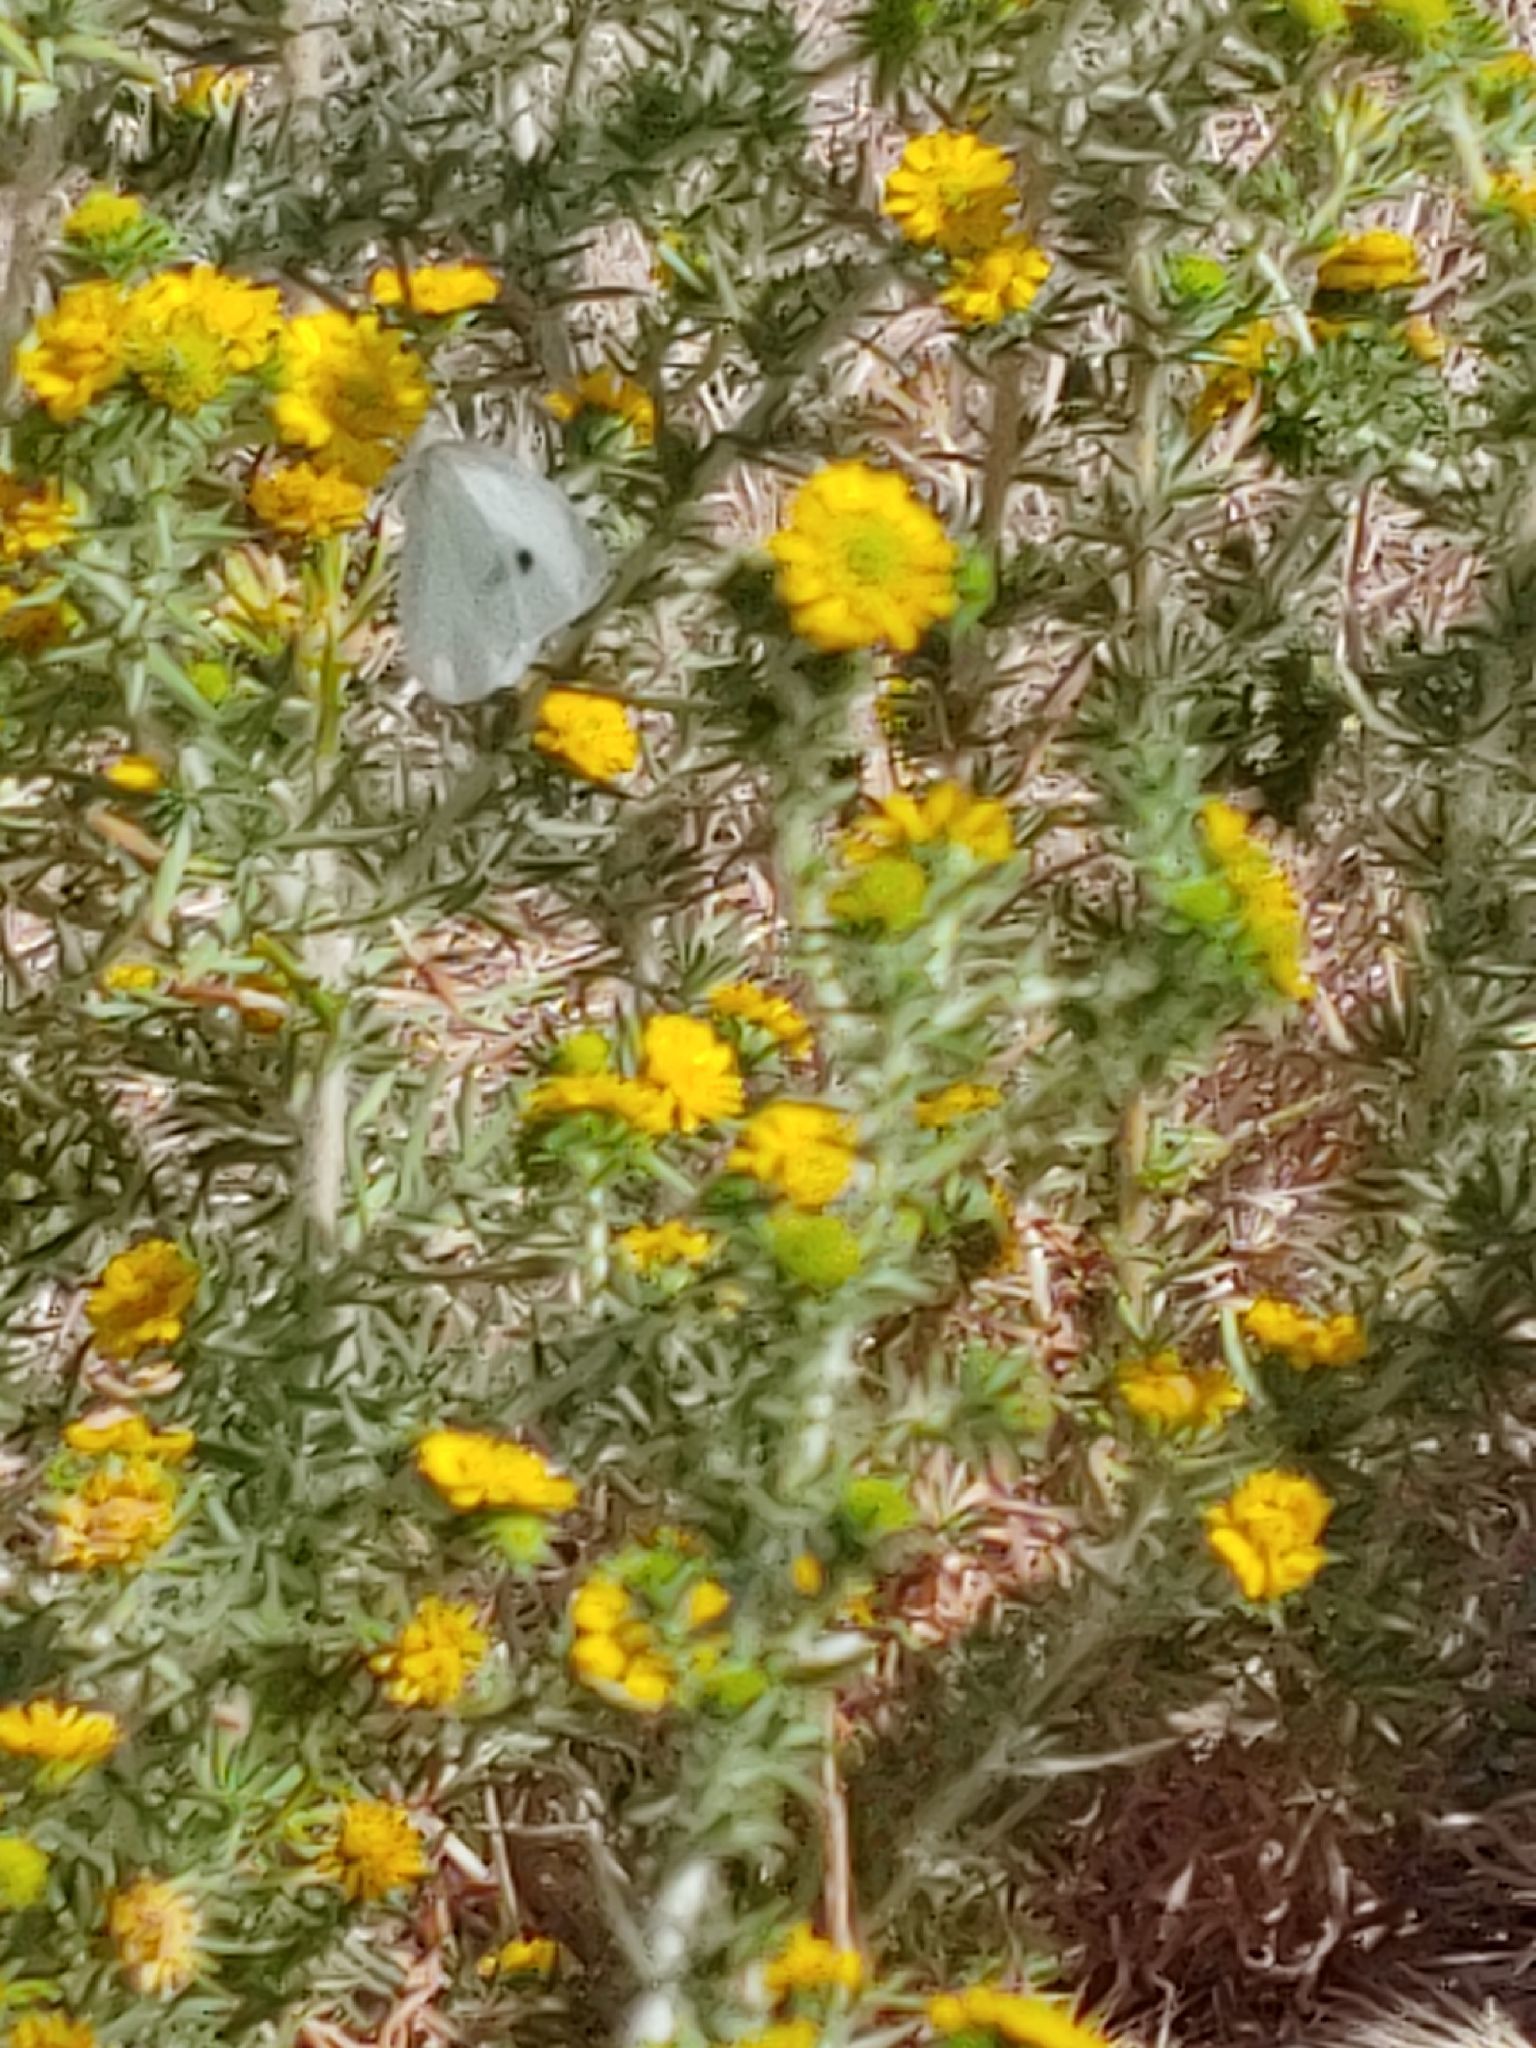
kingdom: Animalia
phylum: Arthropoda
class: Insecta
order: Lepidoptera
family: Pieridae
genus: Pieris
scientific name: Pieris rapae
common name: Small white
